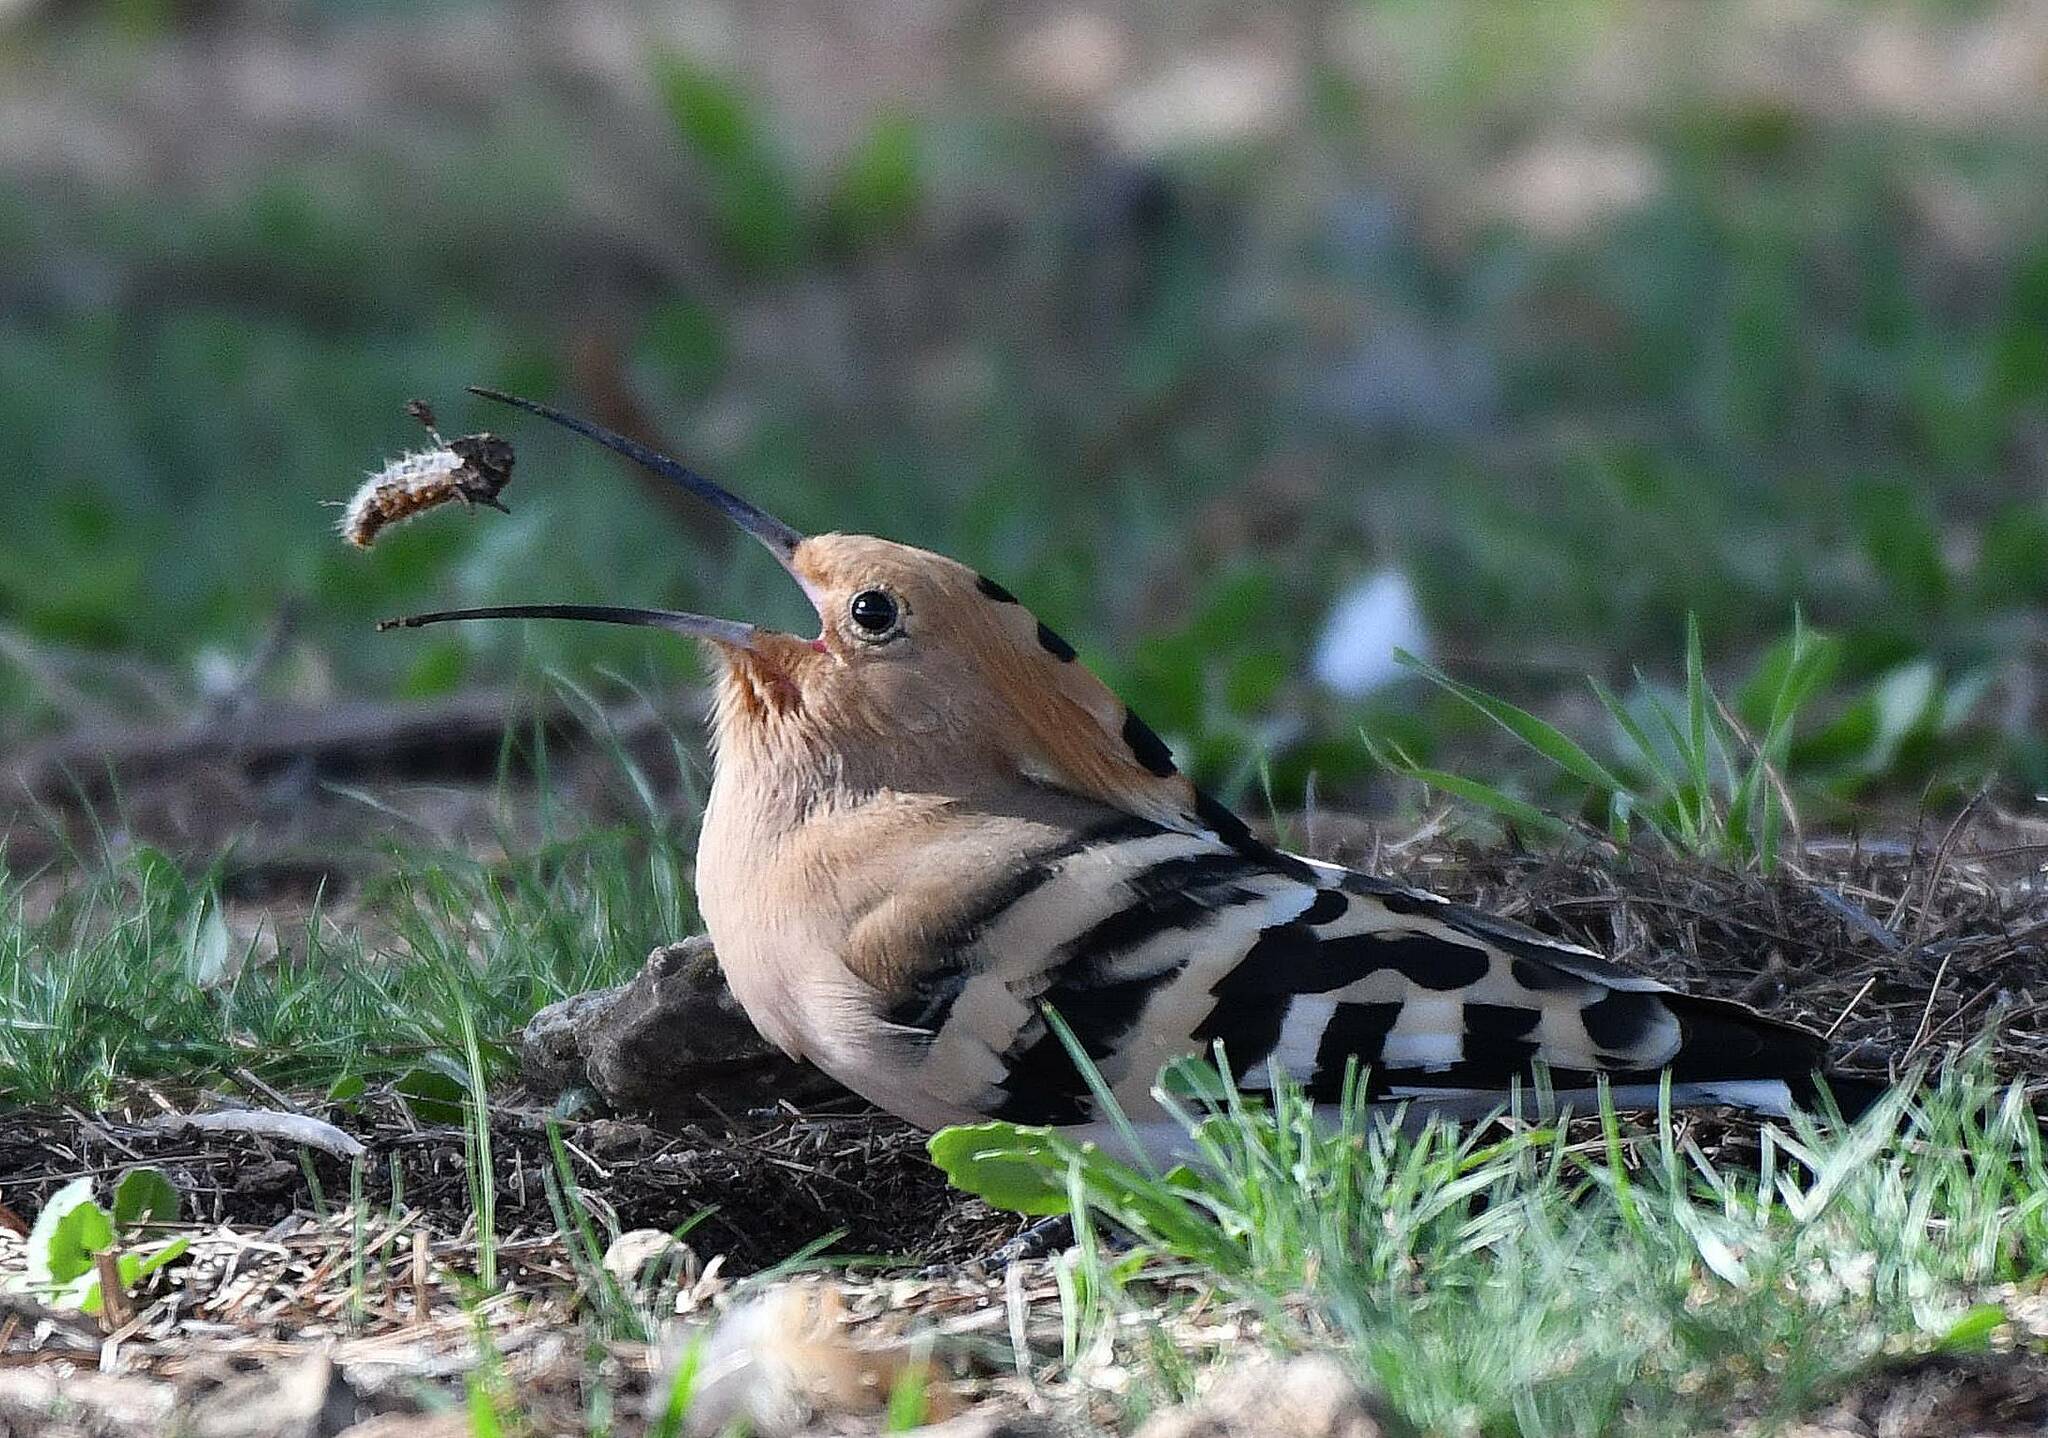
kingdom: Animalia
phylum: Chordata
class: Aves
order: Bucerotiformes
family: Upupidae
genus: Upupa
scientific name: Upupa epops
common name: Eurasian hoopoe
